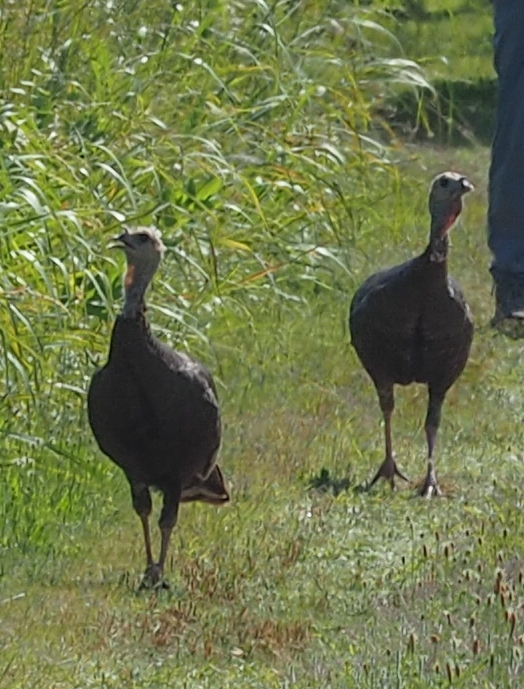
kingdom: Animalia
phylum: Chordata
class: Aves
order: Galliformes
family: Phasianidae
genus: Meleagris
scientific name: Meleagris gallopavo
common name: Wild turkey
